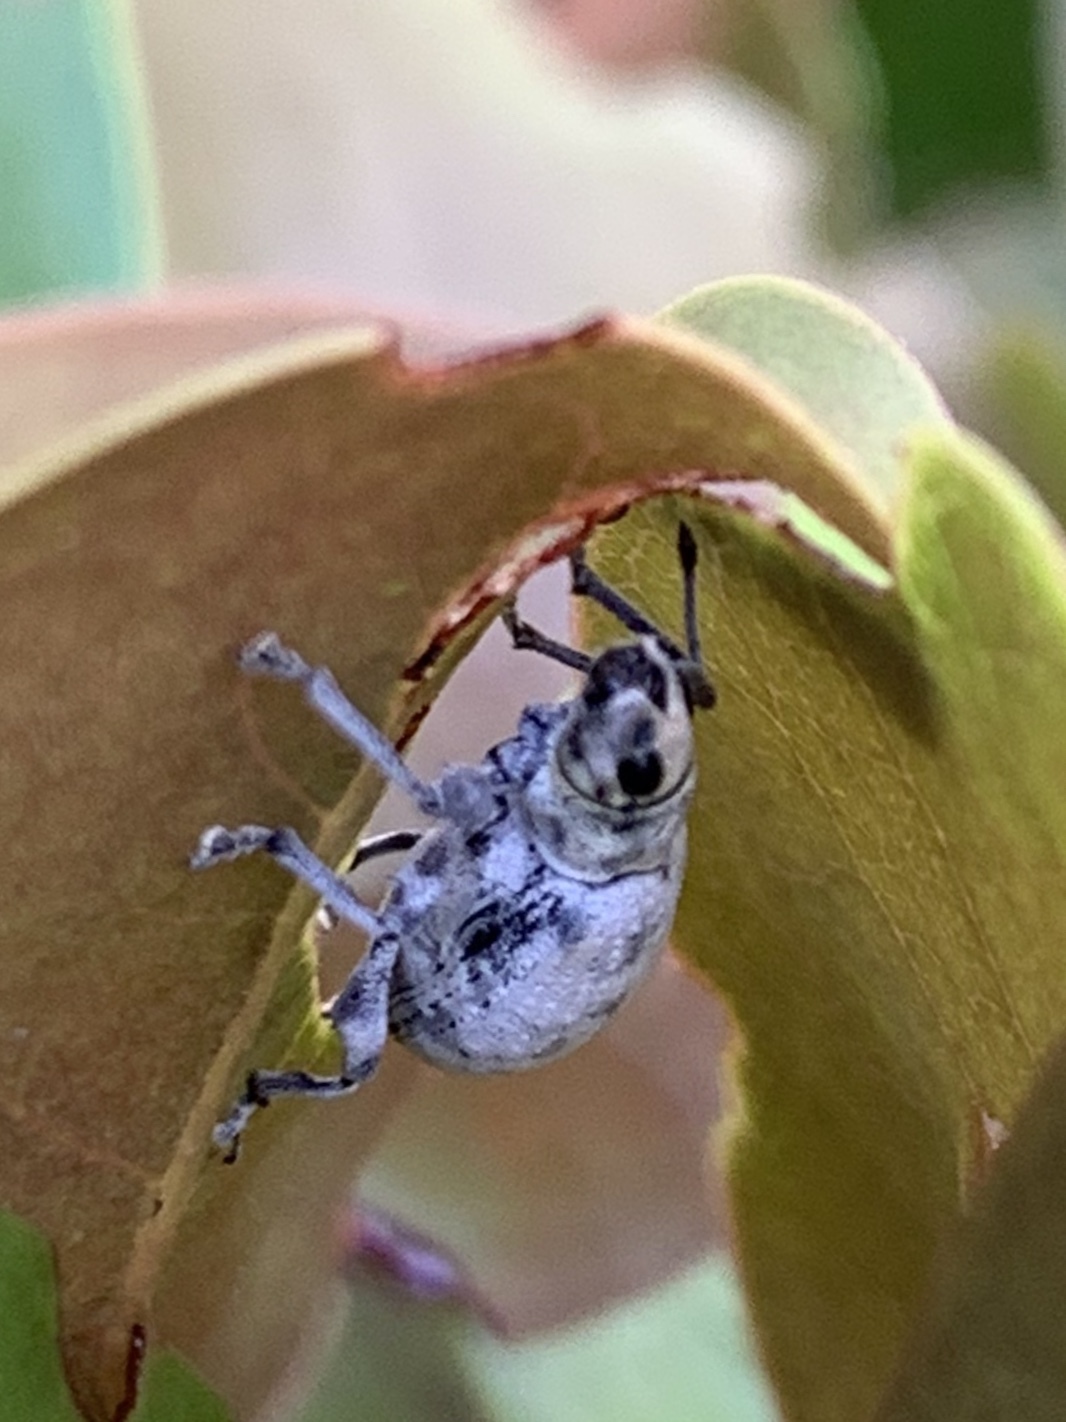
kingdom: Animalia
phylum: Arthropoda
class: Insecta
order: Coleoptera
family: Curculionidae
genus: Myllocerus
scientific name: Myllocerus undecimpustulatus
